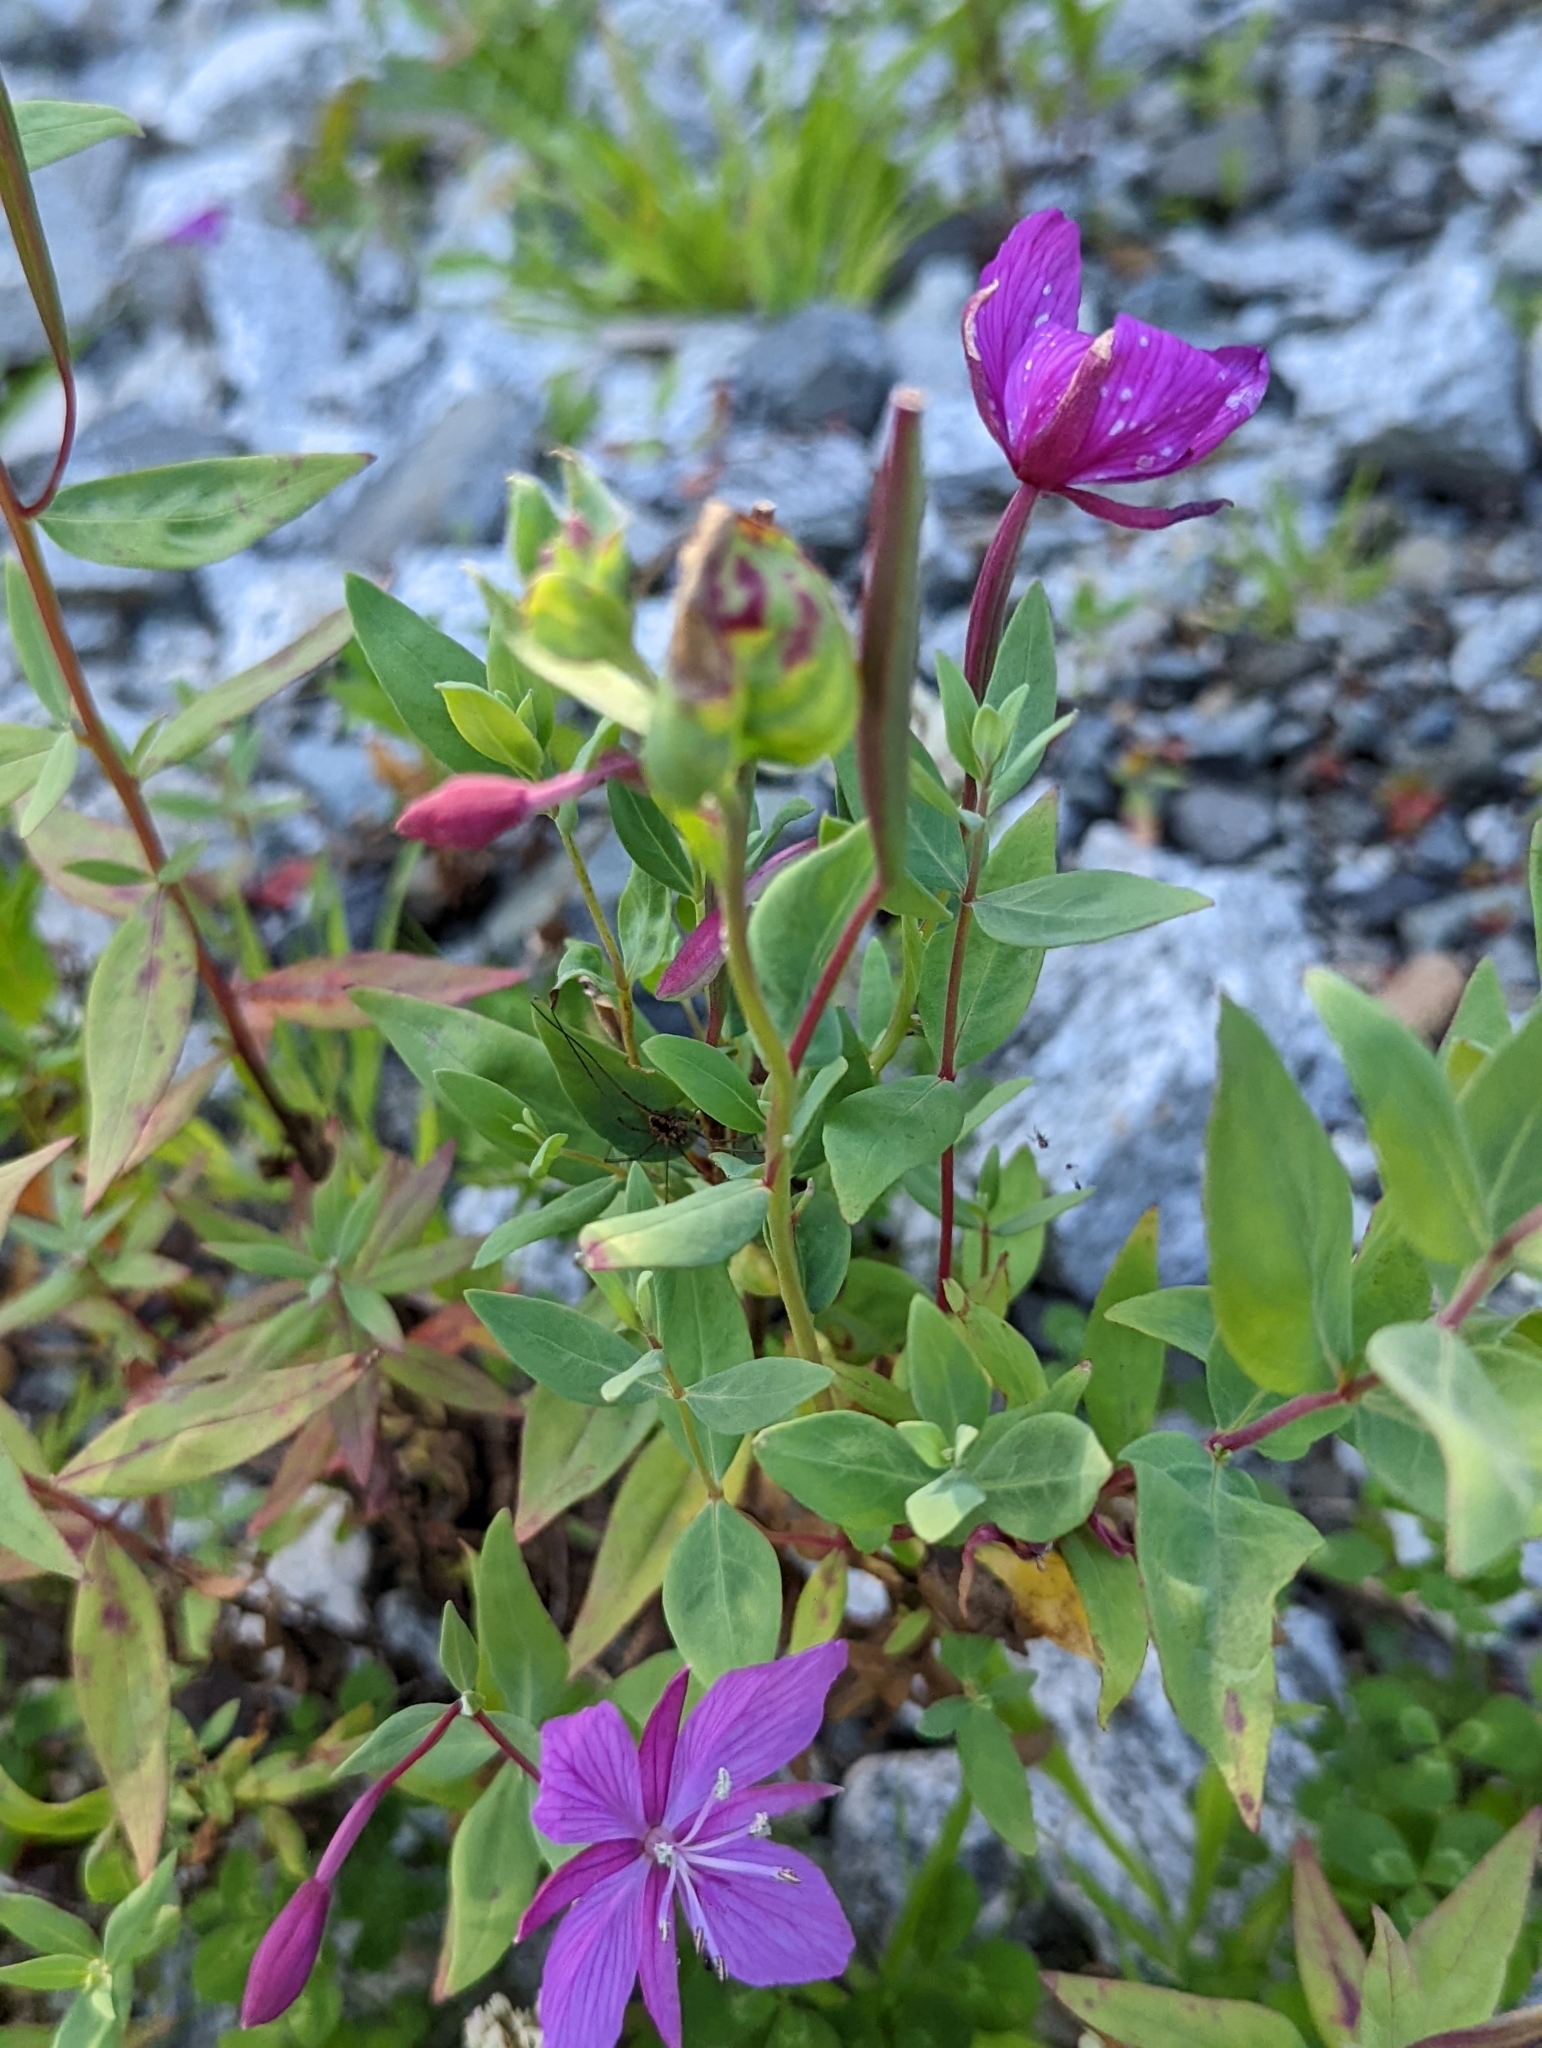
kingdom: Plantae
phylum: Tracheophyta
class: Magnoliopsida
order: Myrtales
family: Onagraceae
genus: Chamaenerion
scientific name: Chamaenerion latifolium
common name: Dwarf fireweed
